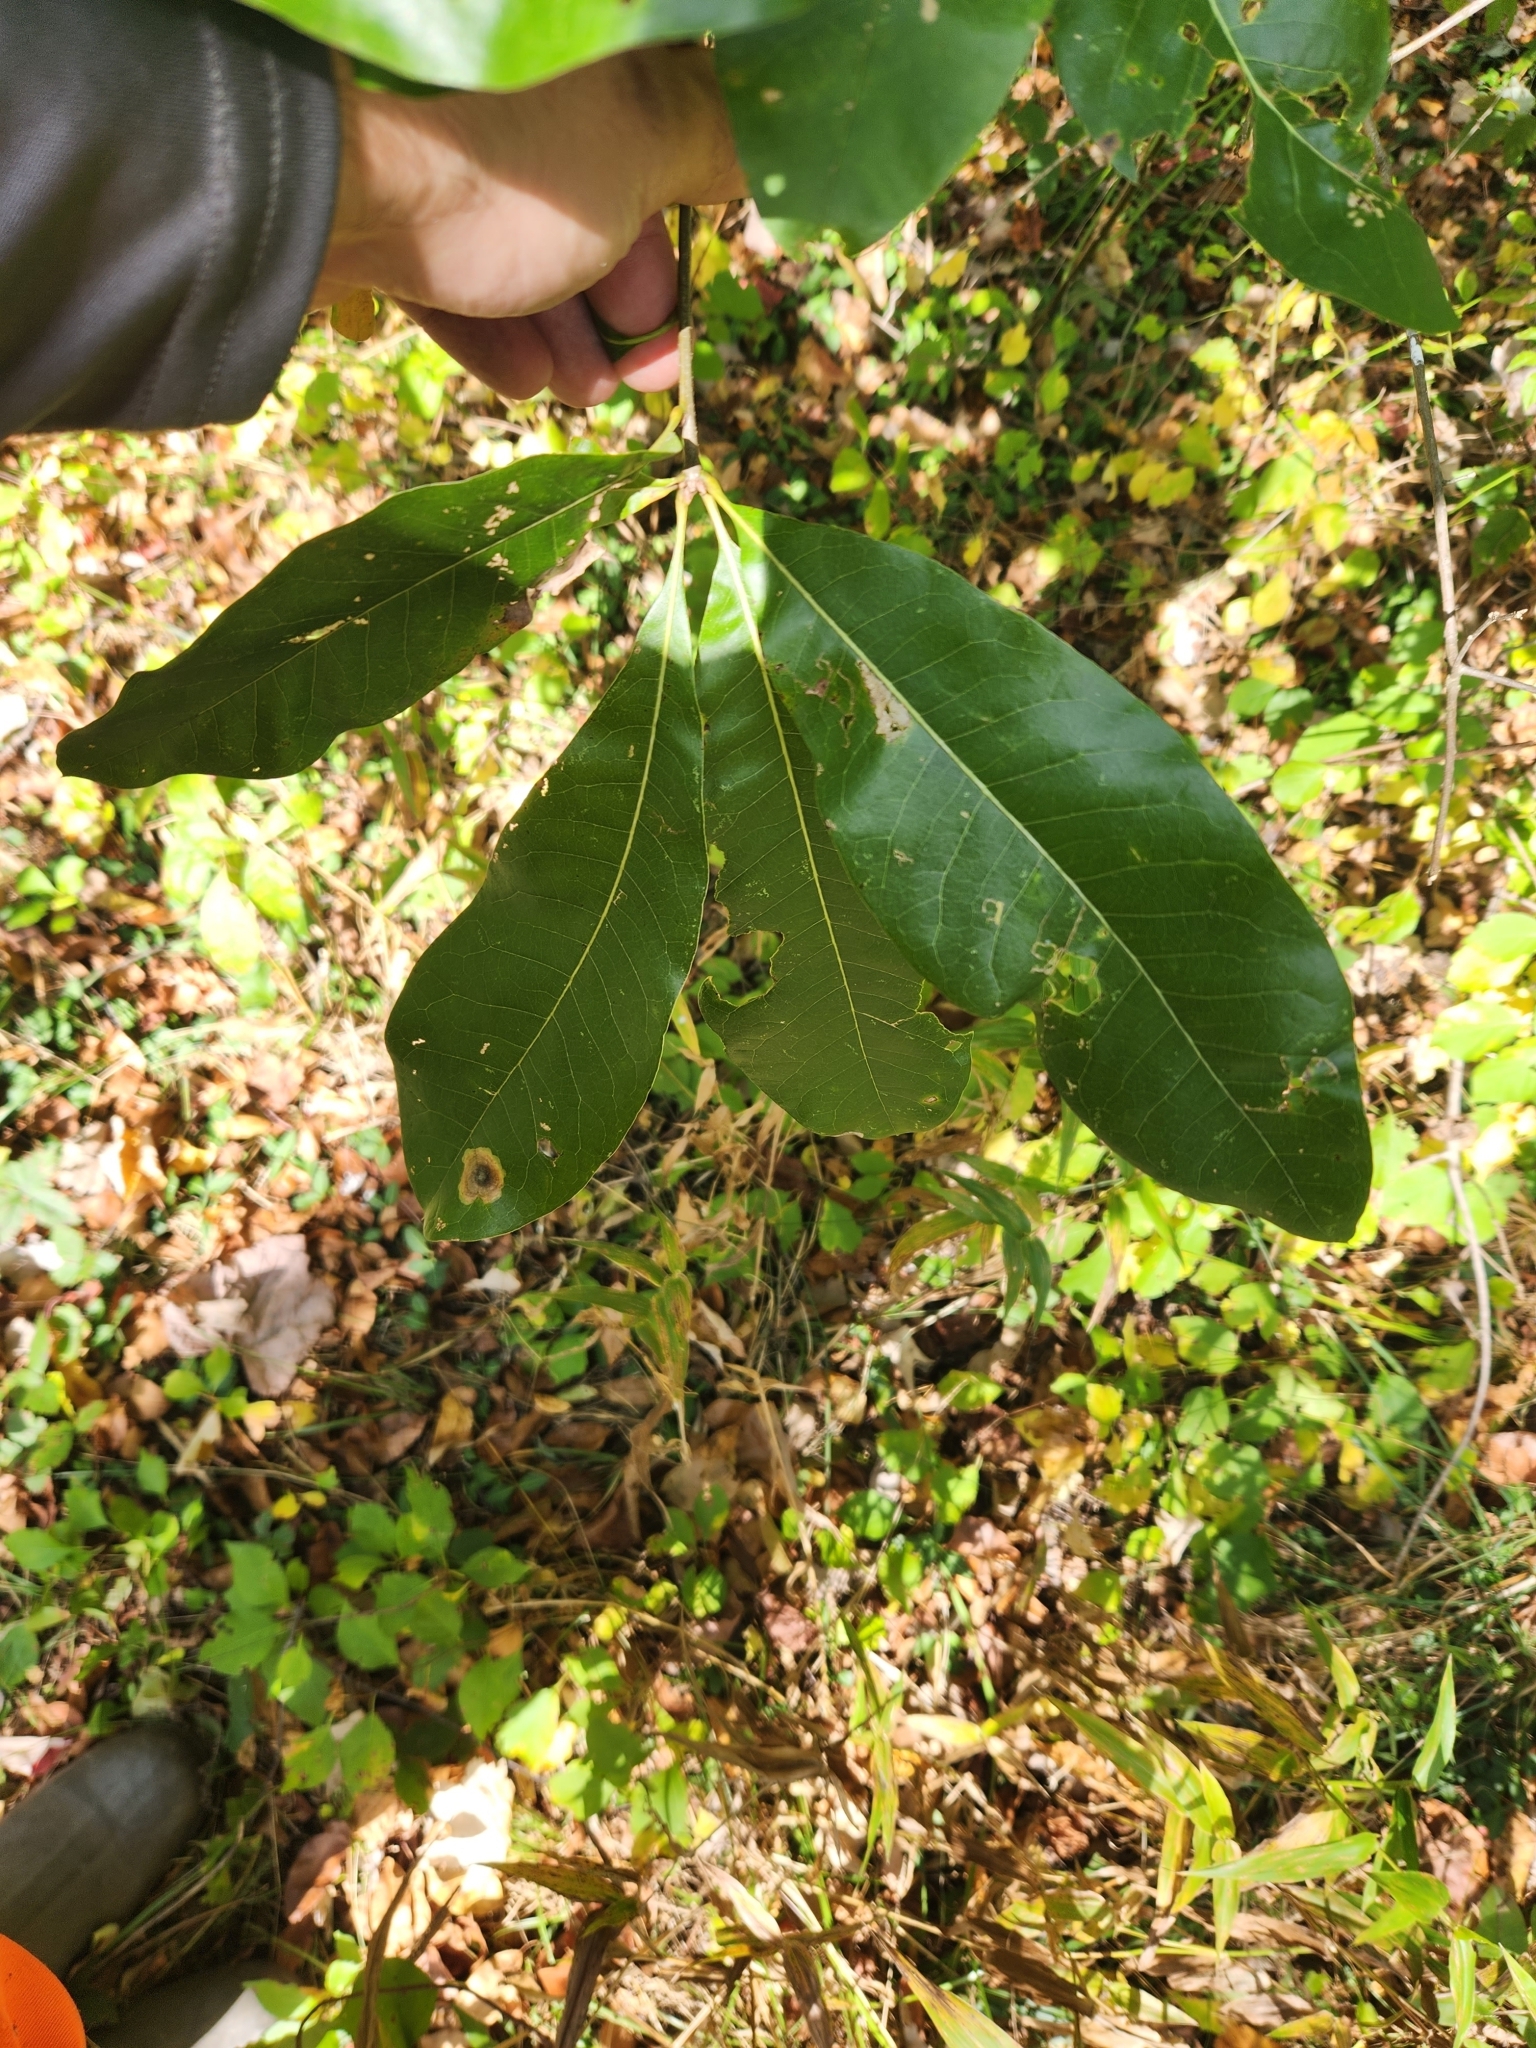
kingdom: Plantae
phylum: Tracheophyta
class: Magnoliopsida
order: Fagales
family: Fagaceae
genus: Quercus
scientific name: Quercus imbricaria
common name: Shingle oak
